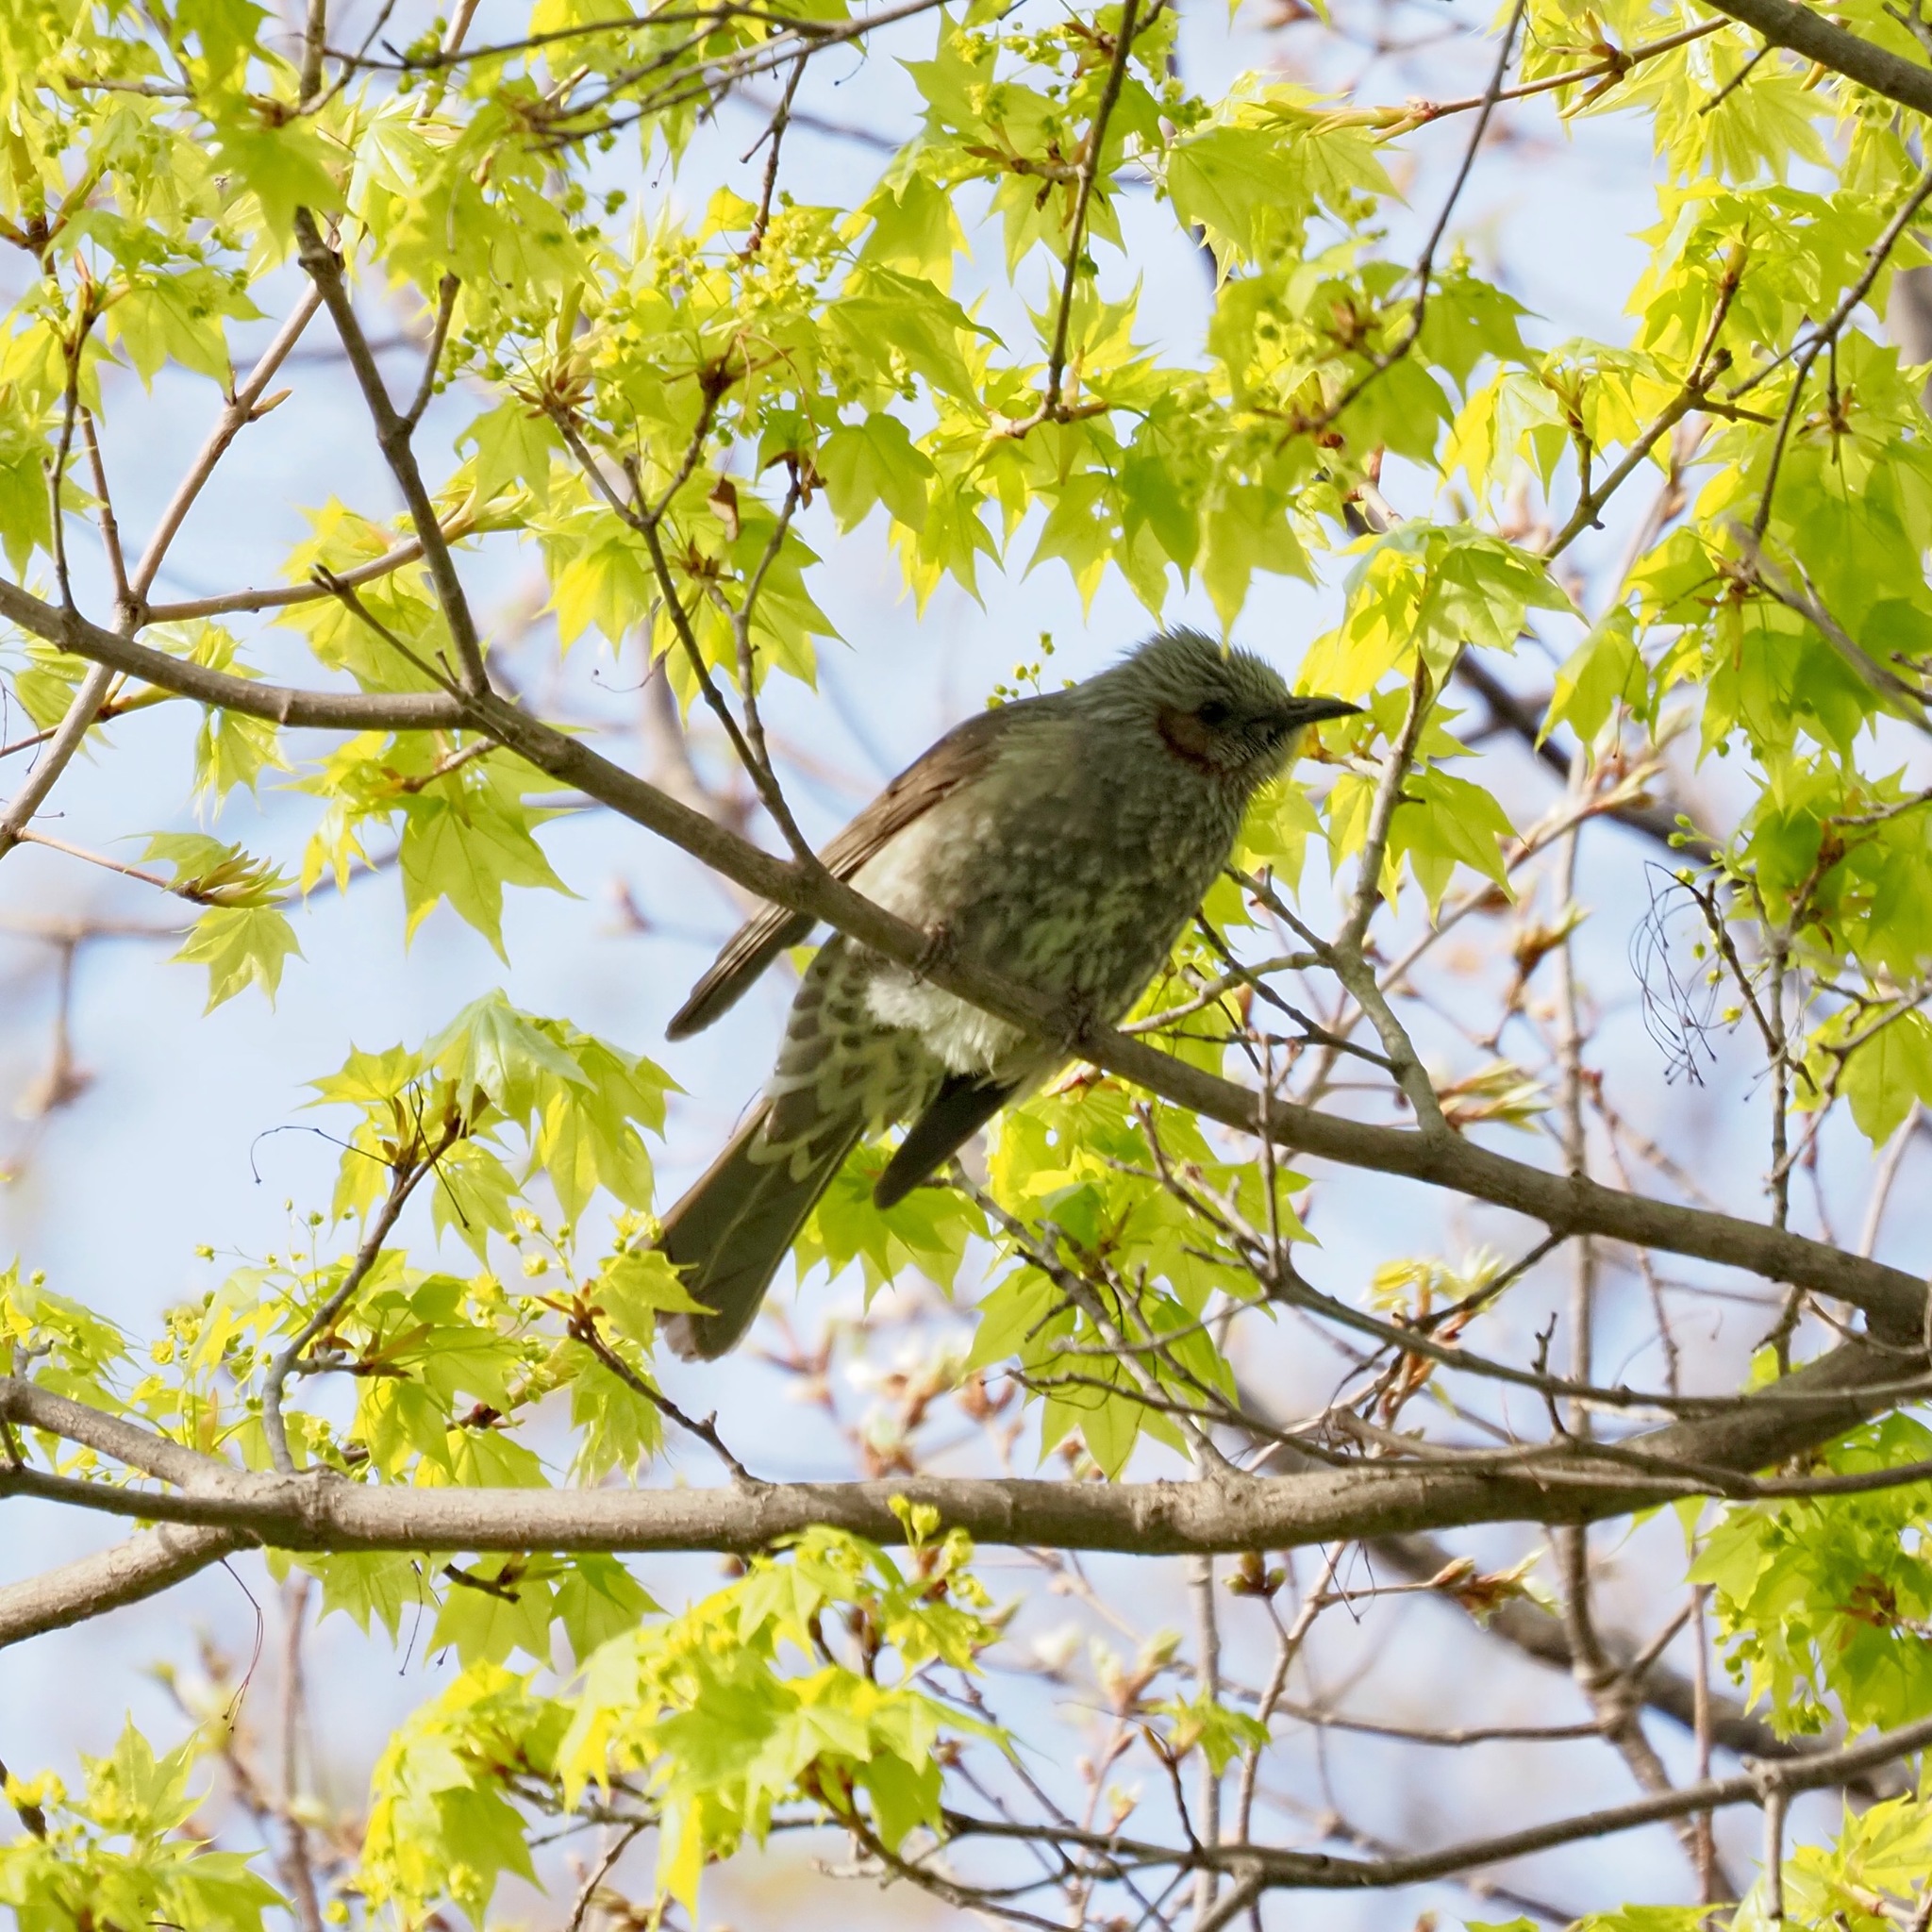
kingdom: Animalia
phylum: Chordata
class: Aves
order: Passeriformes
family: Pycnonotidae
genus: Hypsipetes
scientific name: Hypsipetes amaurotis
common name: Brown-eared bulbul
